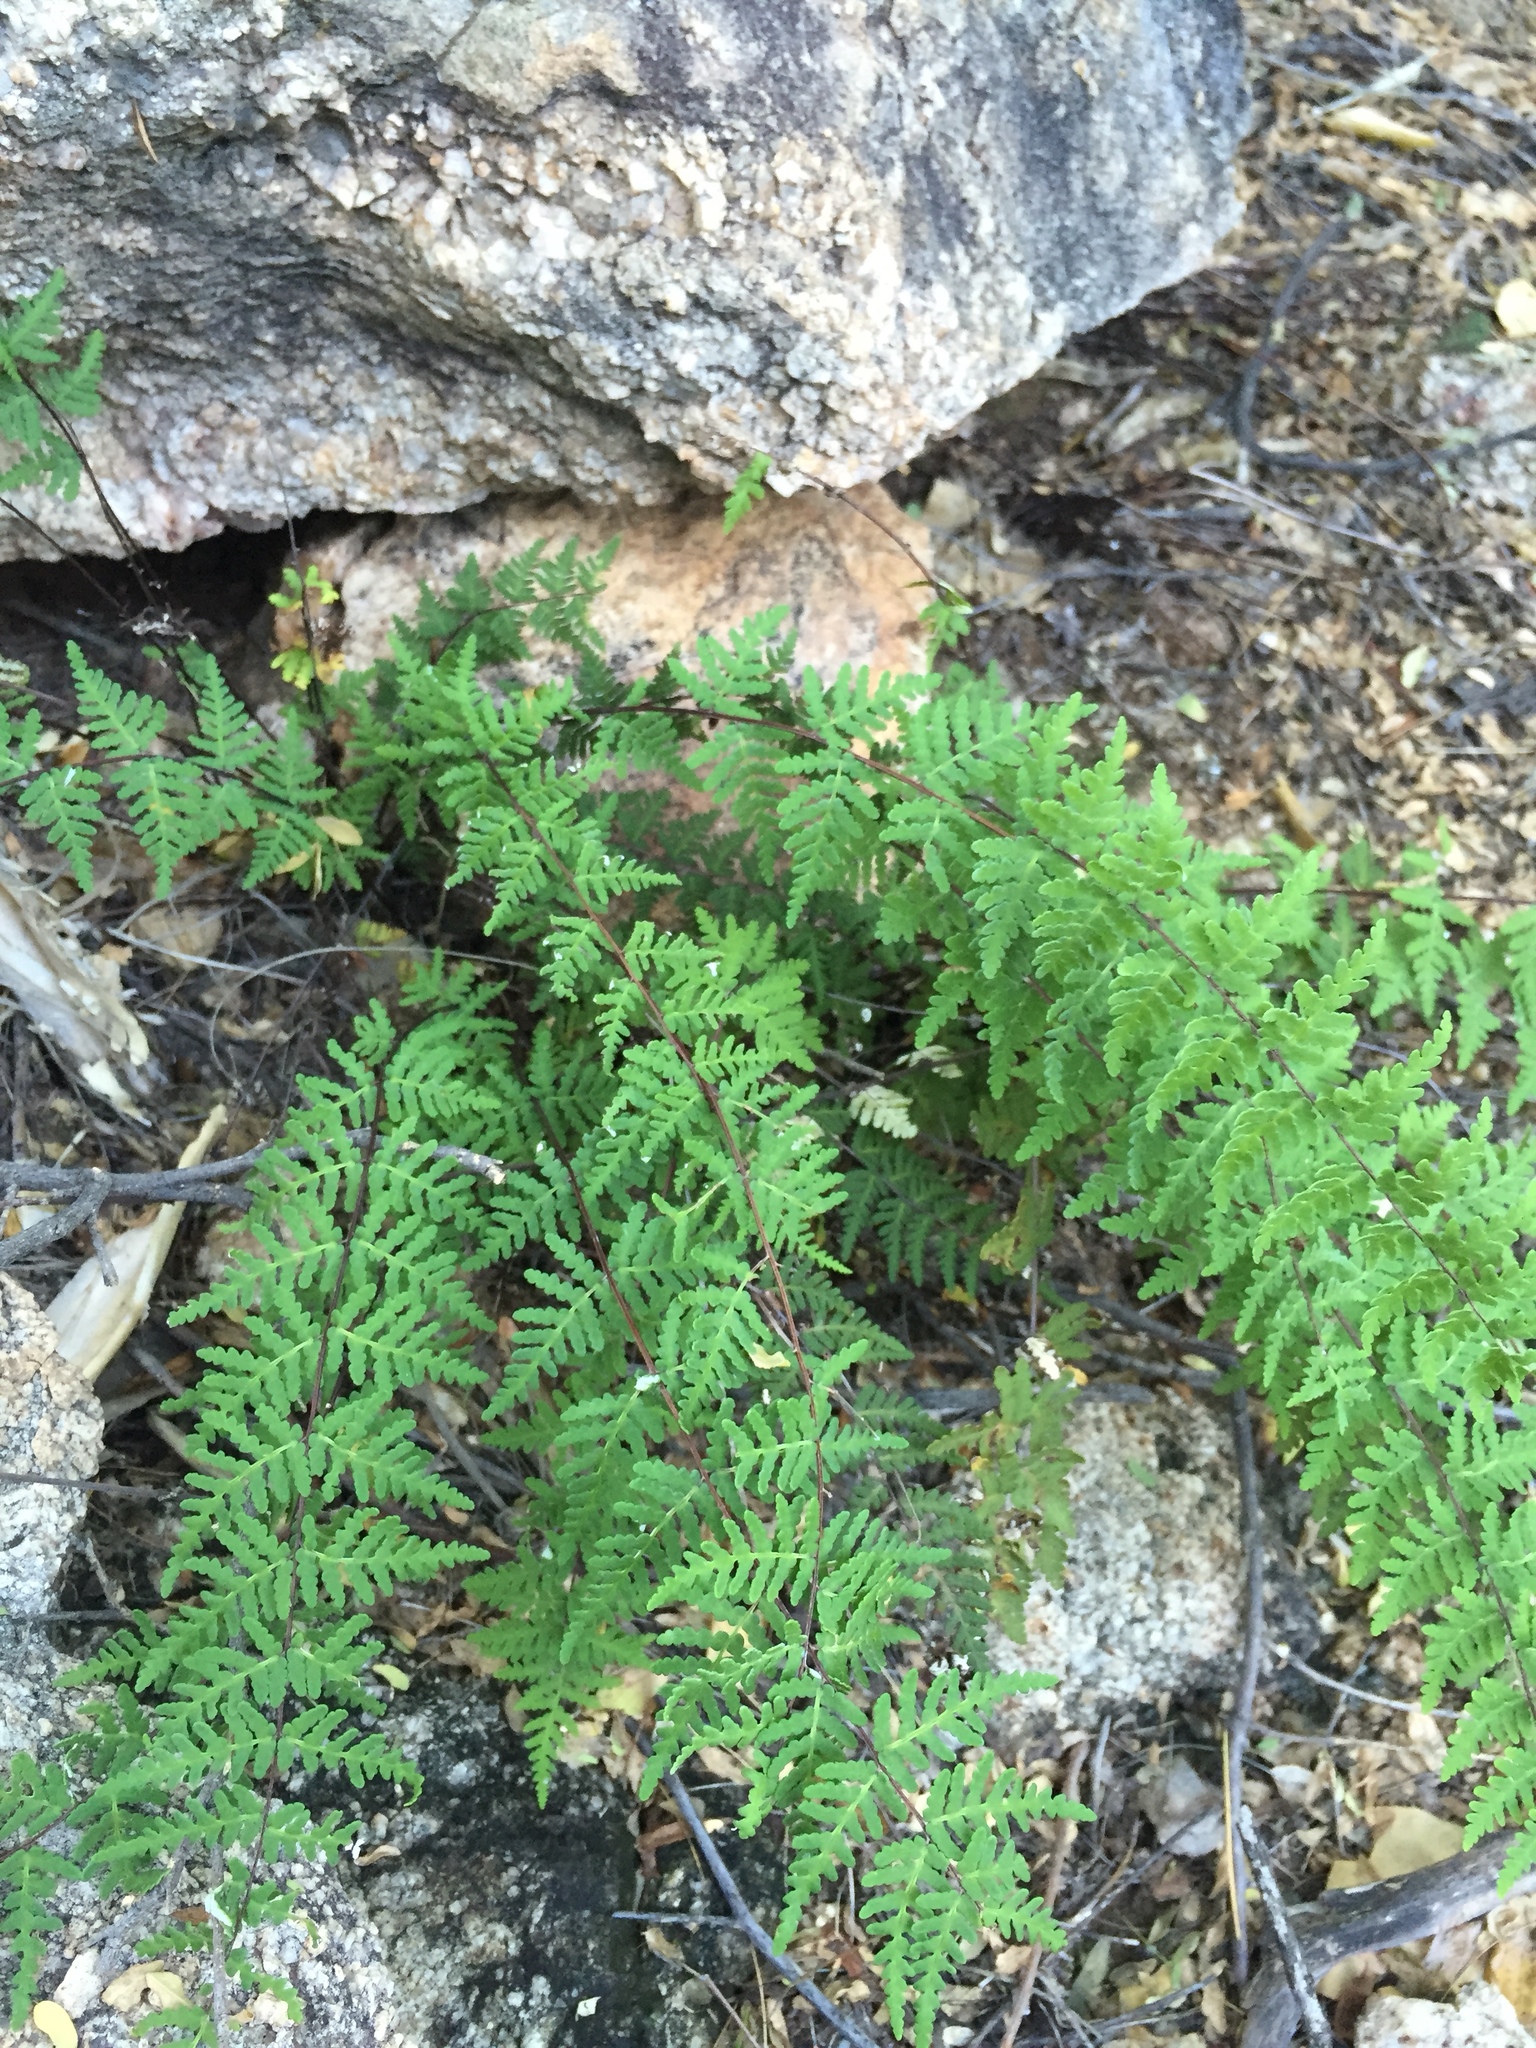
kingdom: Plantae
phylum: Tracheophyta
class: Polypodiopsida
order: Polypodiales
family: Pteridaceae
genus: Notholaena
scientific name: Notholaena lemmonii
